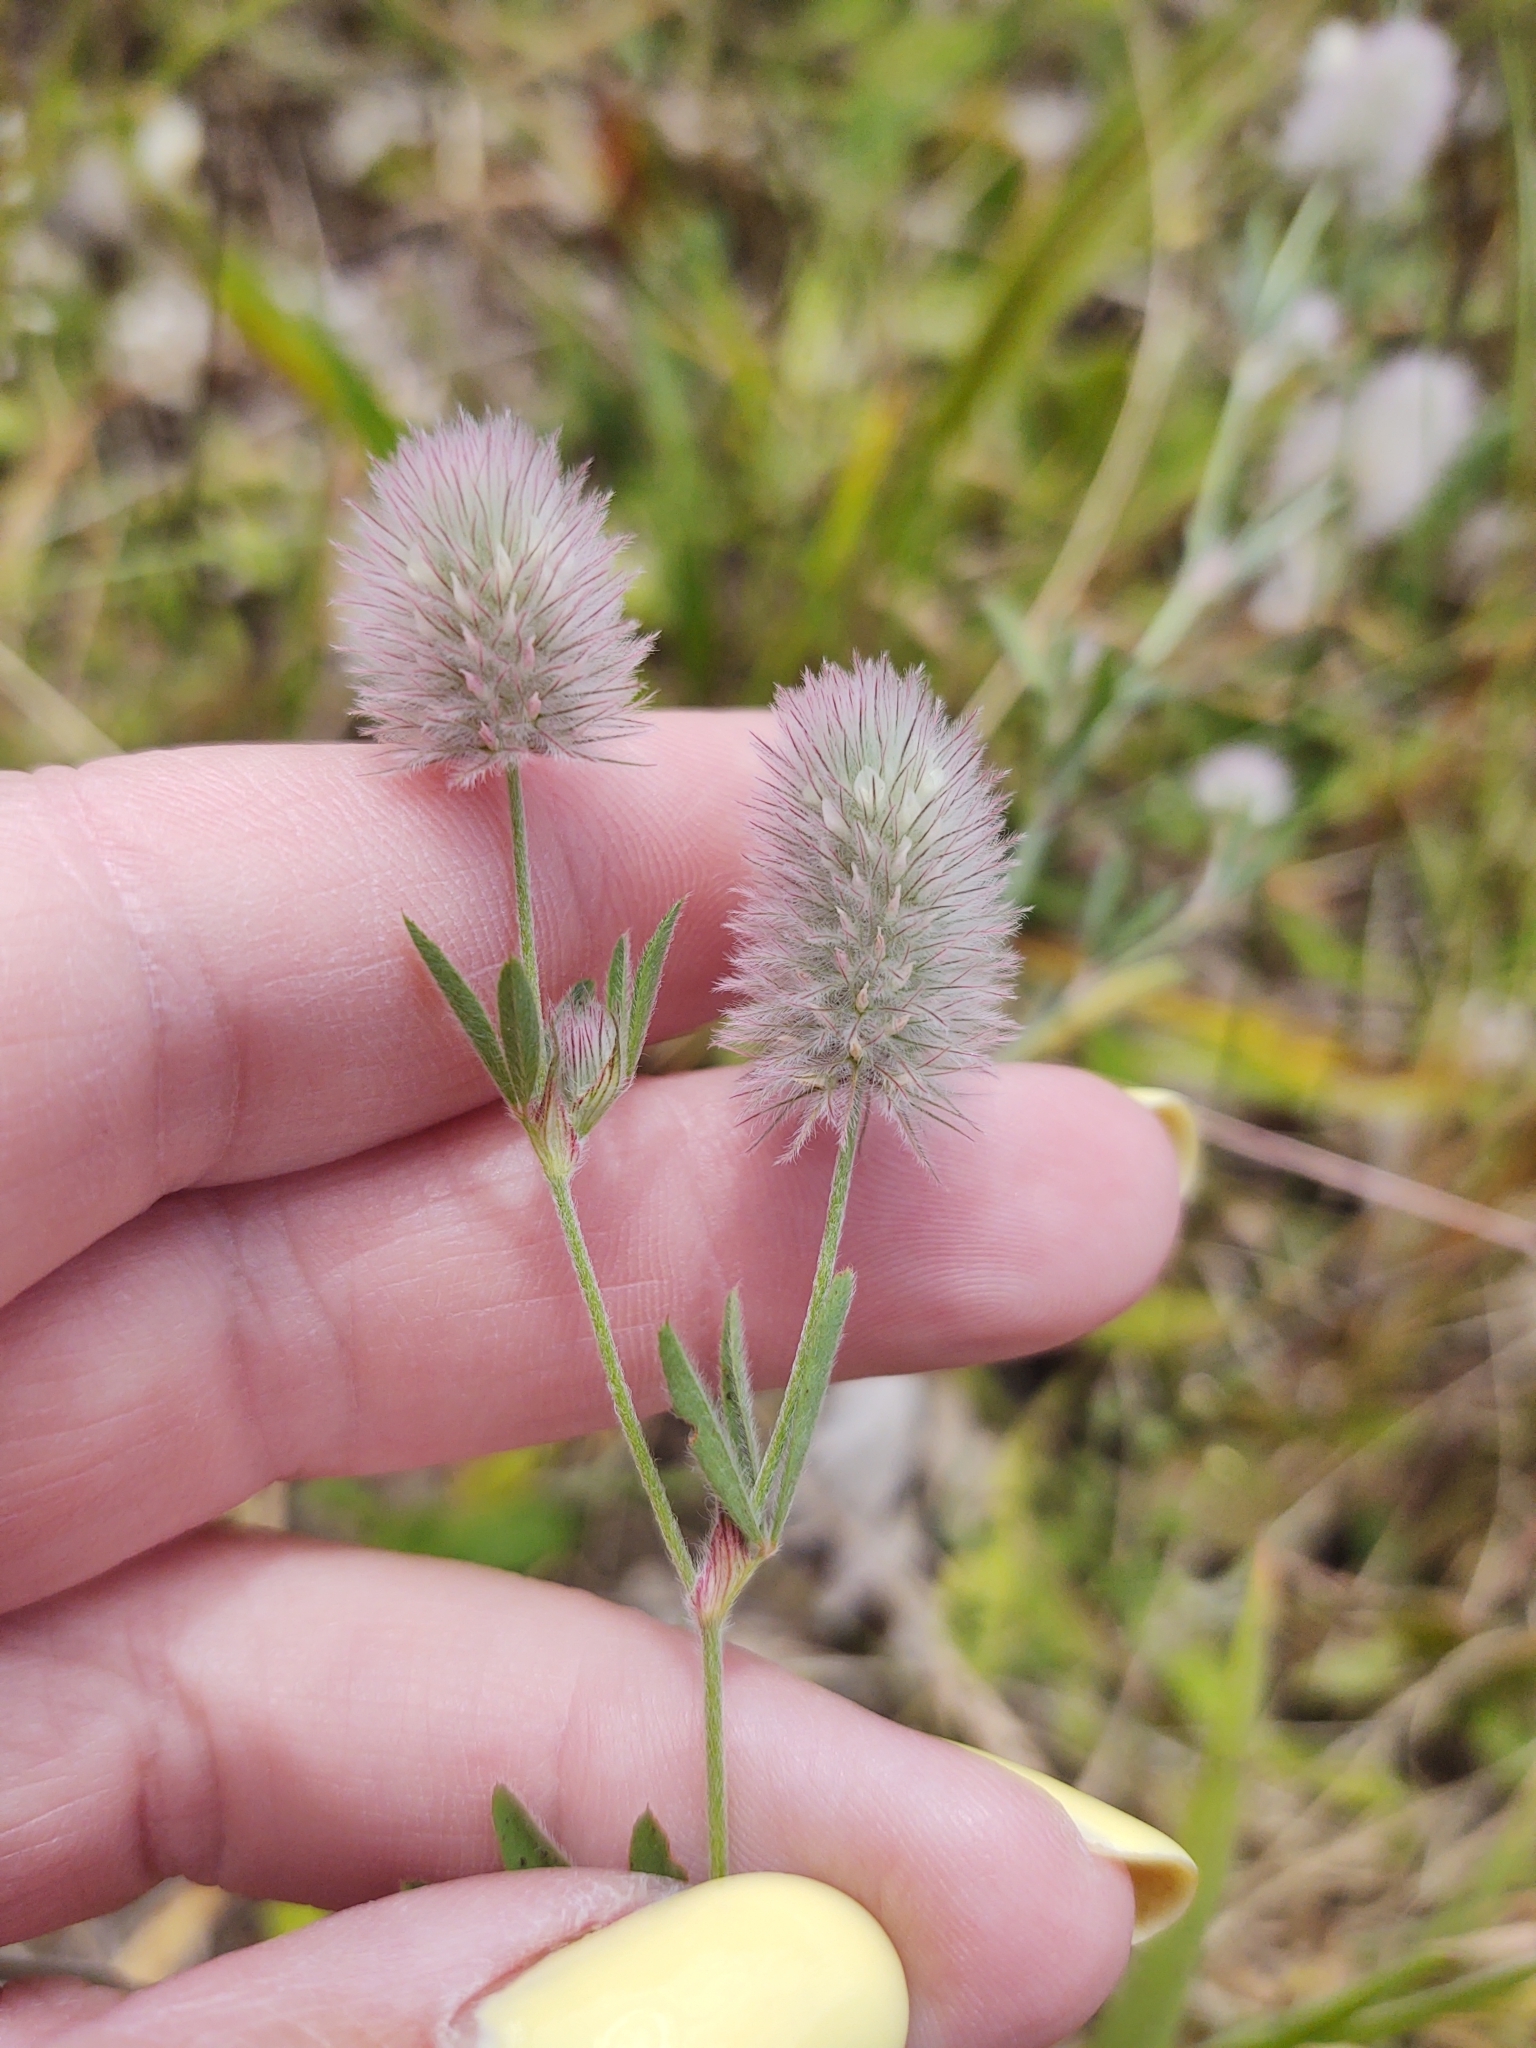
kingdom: Plantae
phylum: Tracheophyta
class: Magnoliopsida
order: Fabales
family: Fabaceae
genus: Trifolium
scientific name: Trifolium arvense
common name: Hare's-foot clover
